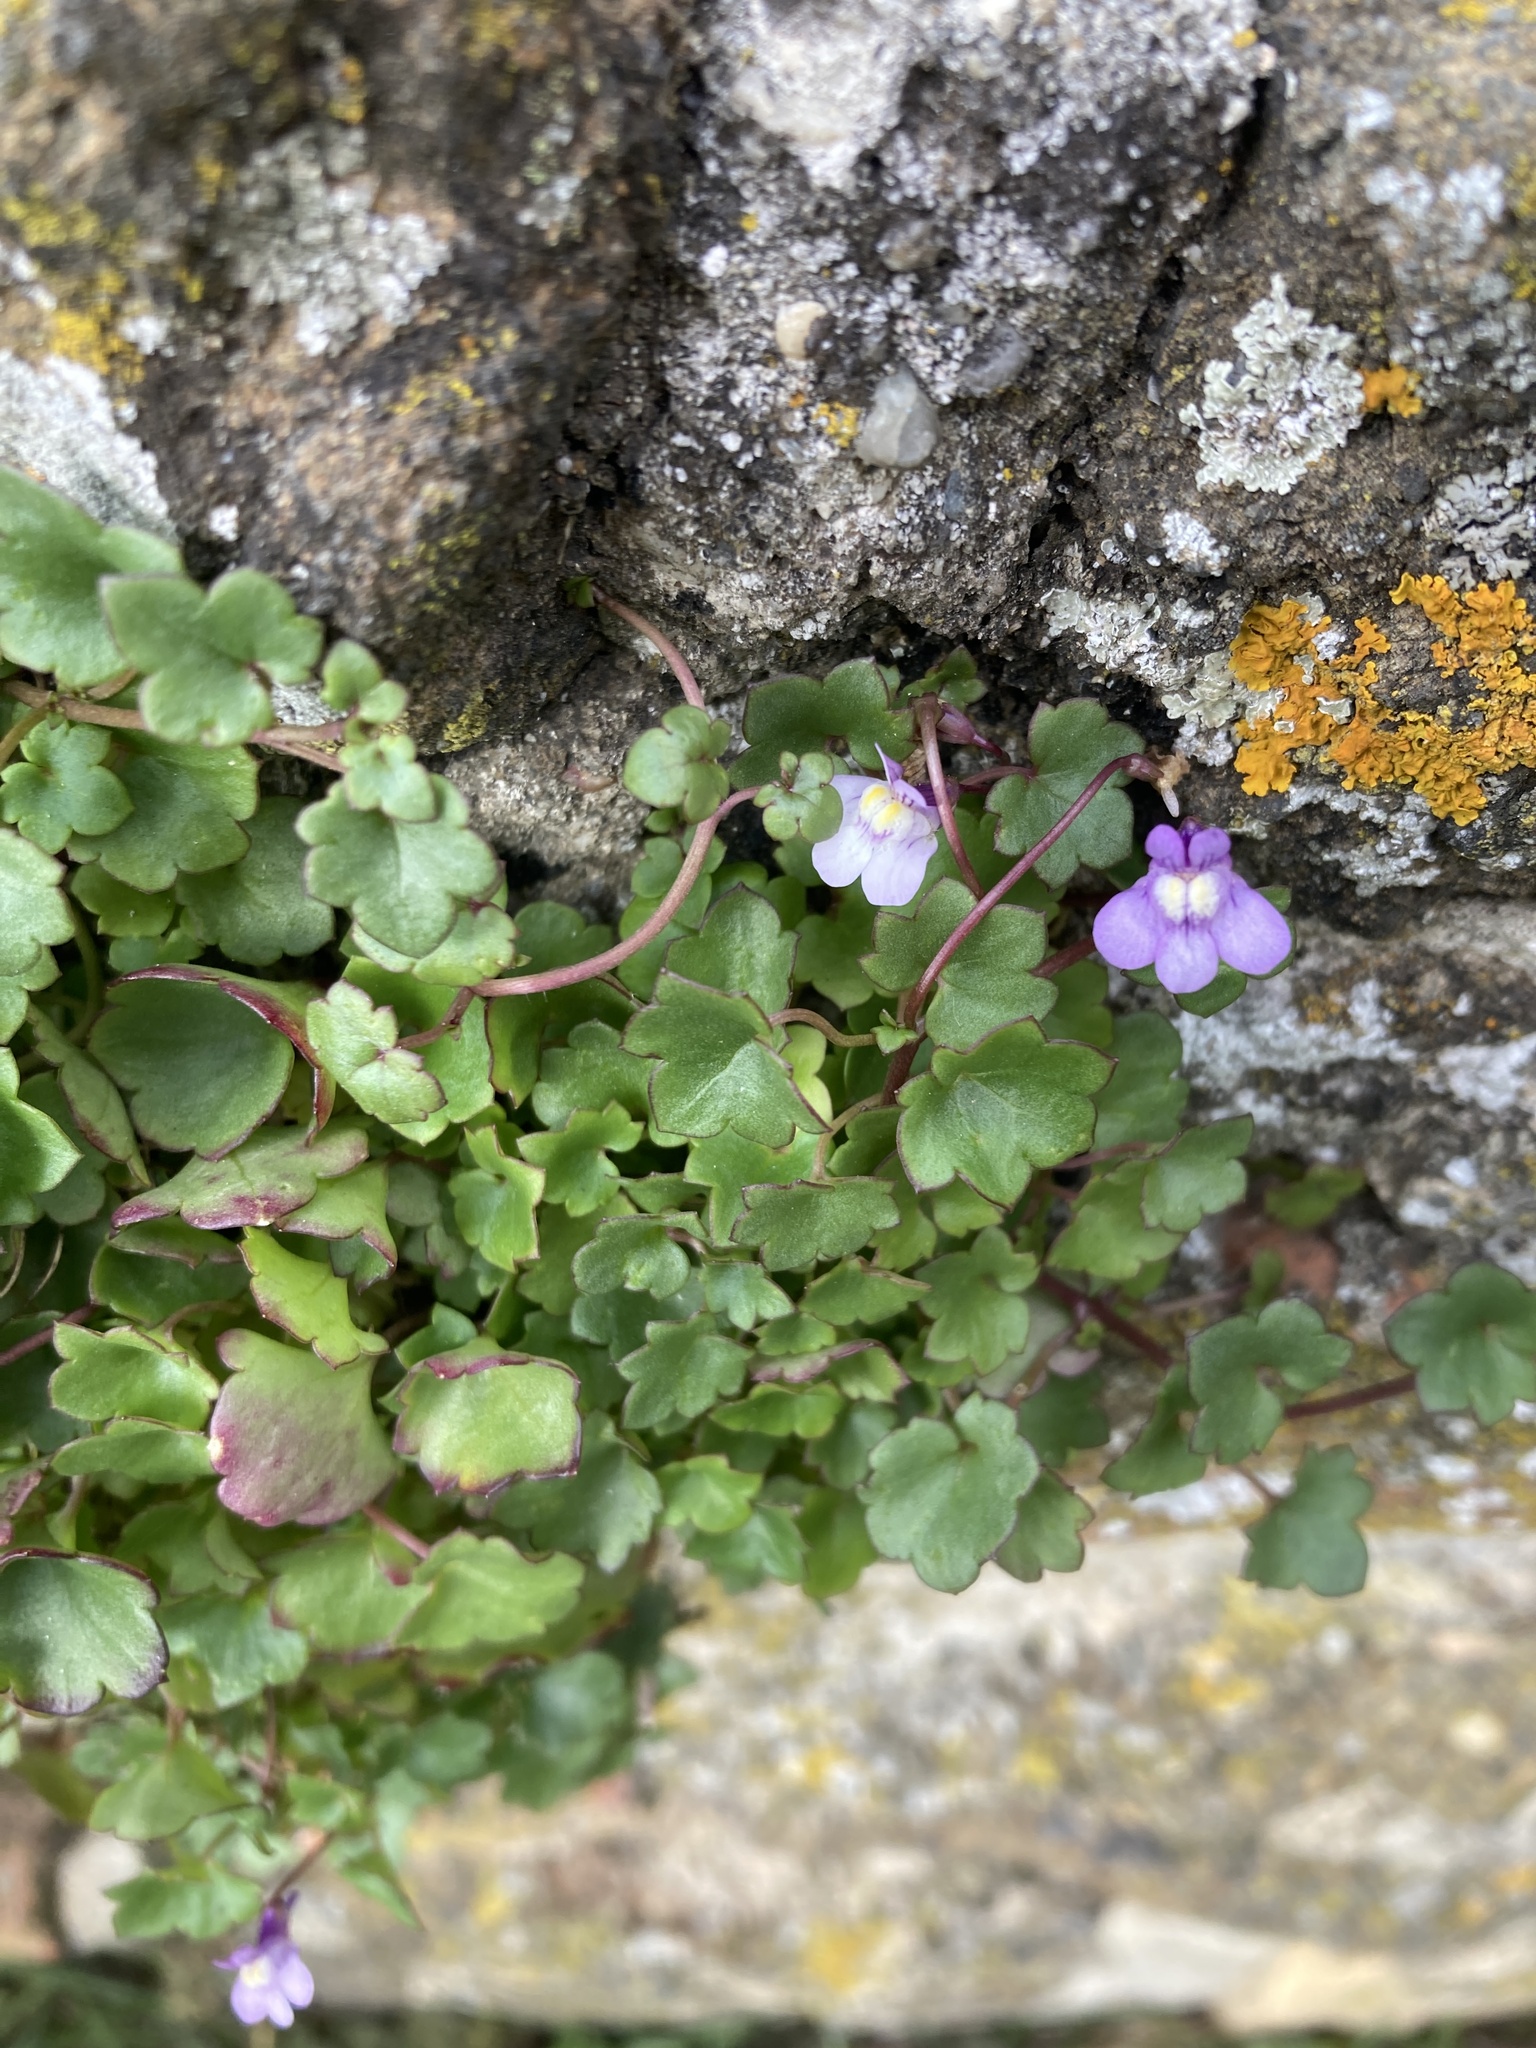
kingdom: Plantae
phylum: Tracheophyta
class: Magnoliopsida
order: Lamiales
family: Plantaginaceae
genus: Cymbalaria
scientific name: Cymbalaria muralis
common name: Ivy-leaved toadflax
